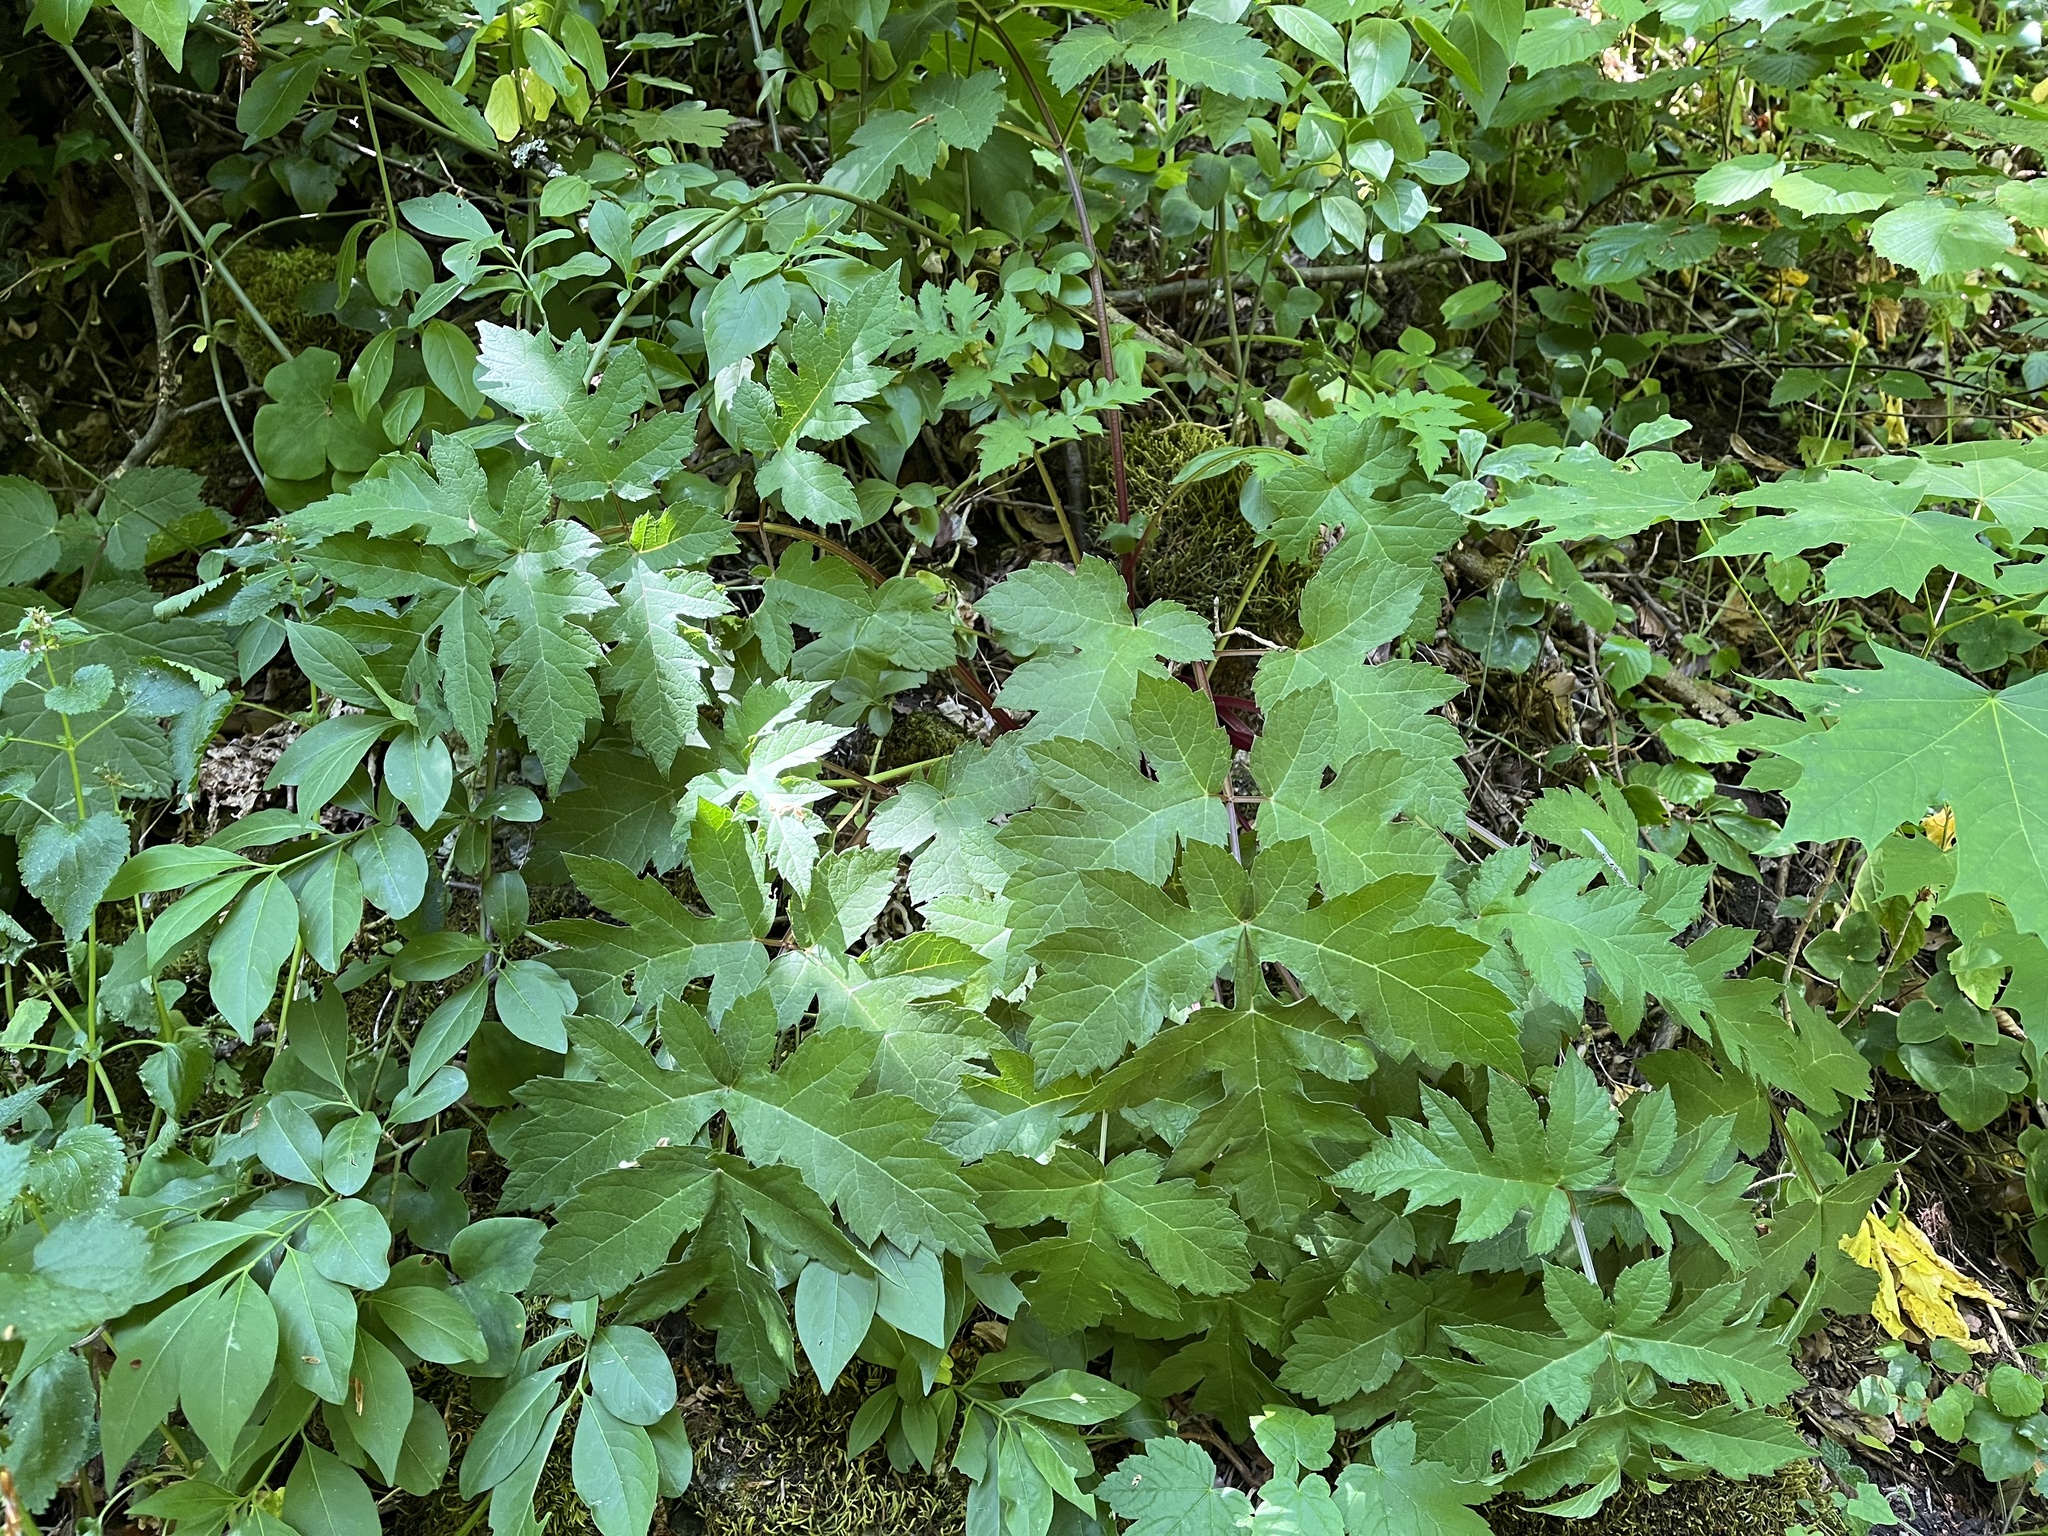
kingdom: Plantae
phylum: Tracheophyta
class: Magnoliopsida
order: Apiales
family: Apiaceae
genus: Heracleum
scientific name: Heracleum sphondylium
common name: Hogweed
